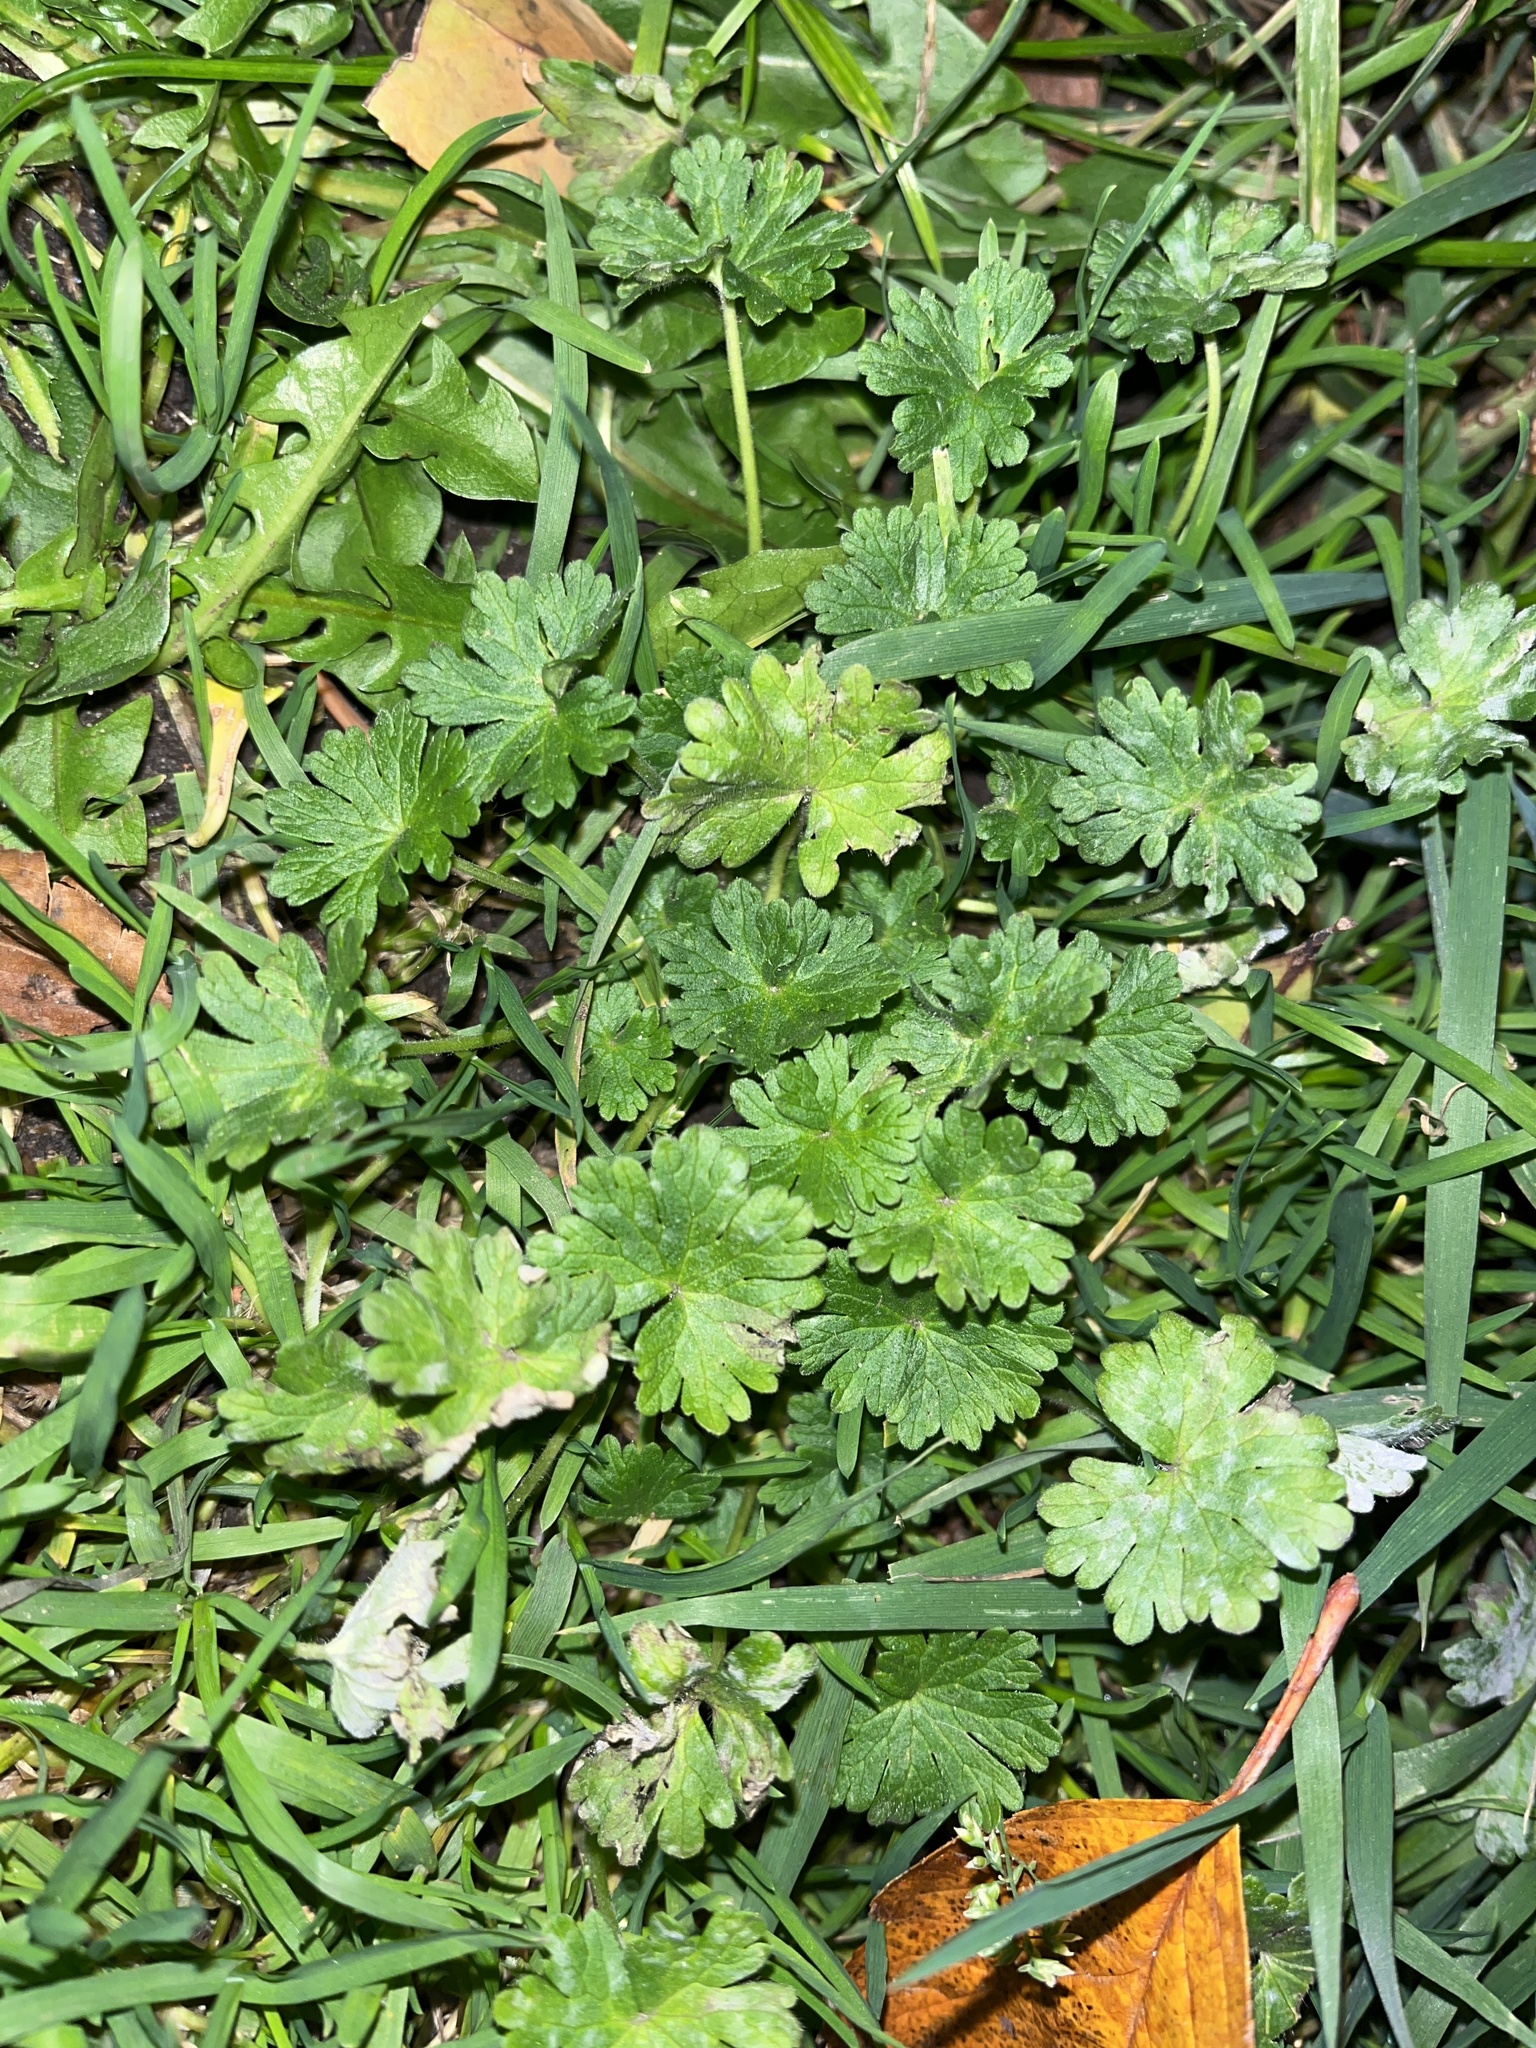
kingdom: Plantae
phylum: Tracheophyta
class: Magnoliopsida
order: Geraniales
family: Geraniaceae
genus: Geranium
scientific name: Geranium molle
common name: Dove's-foot crane's-bill
